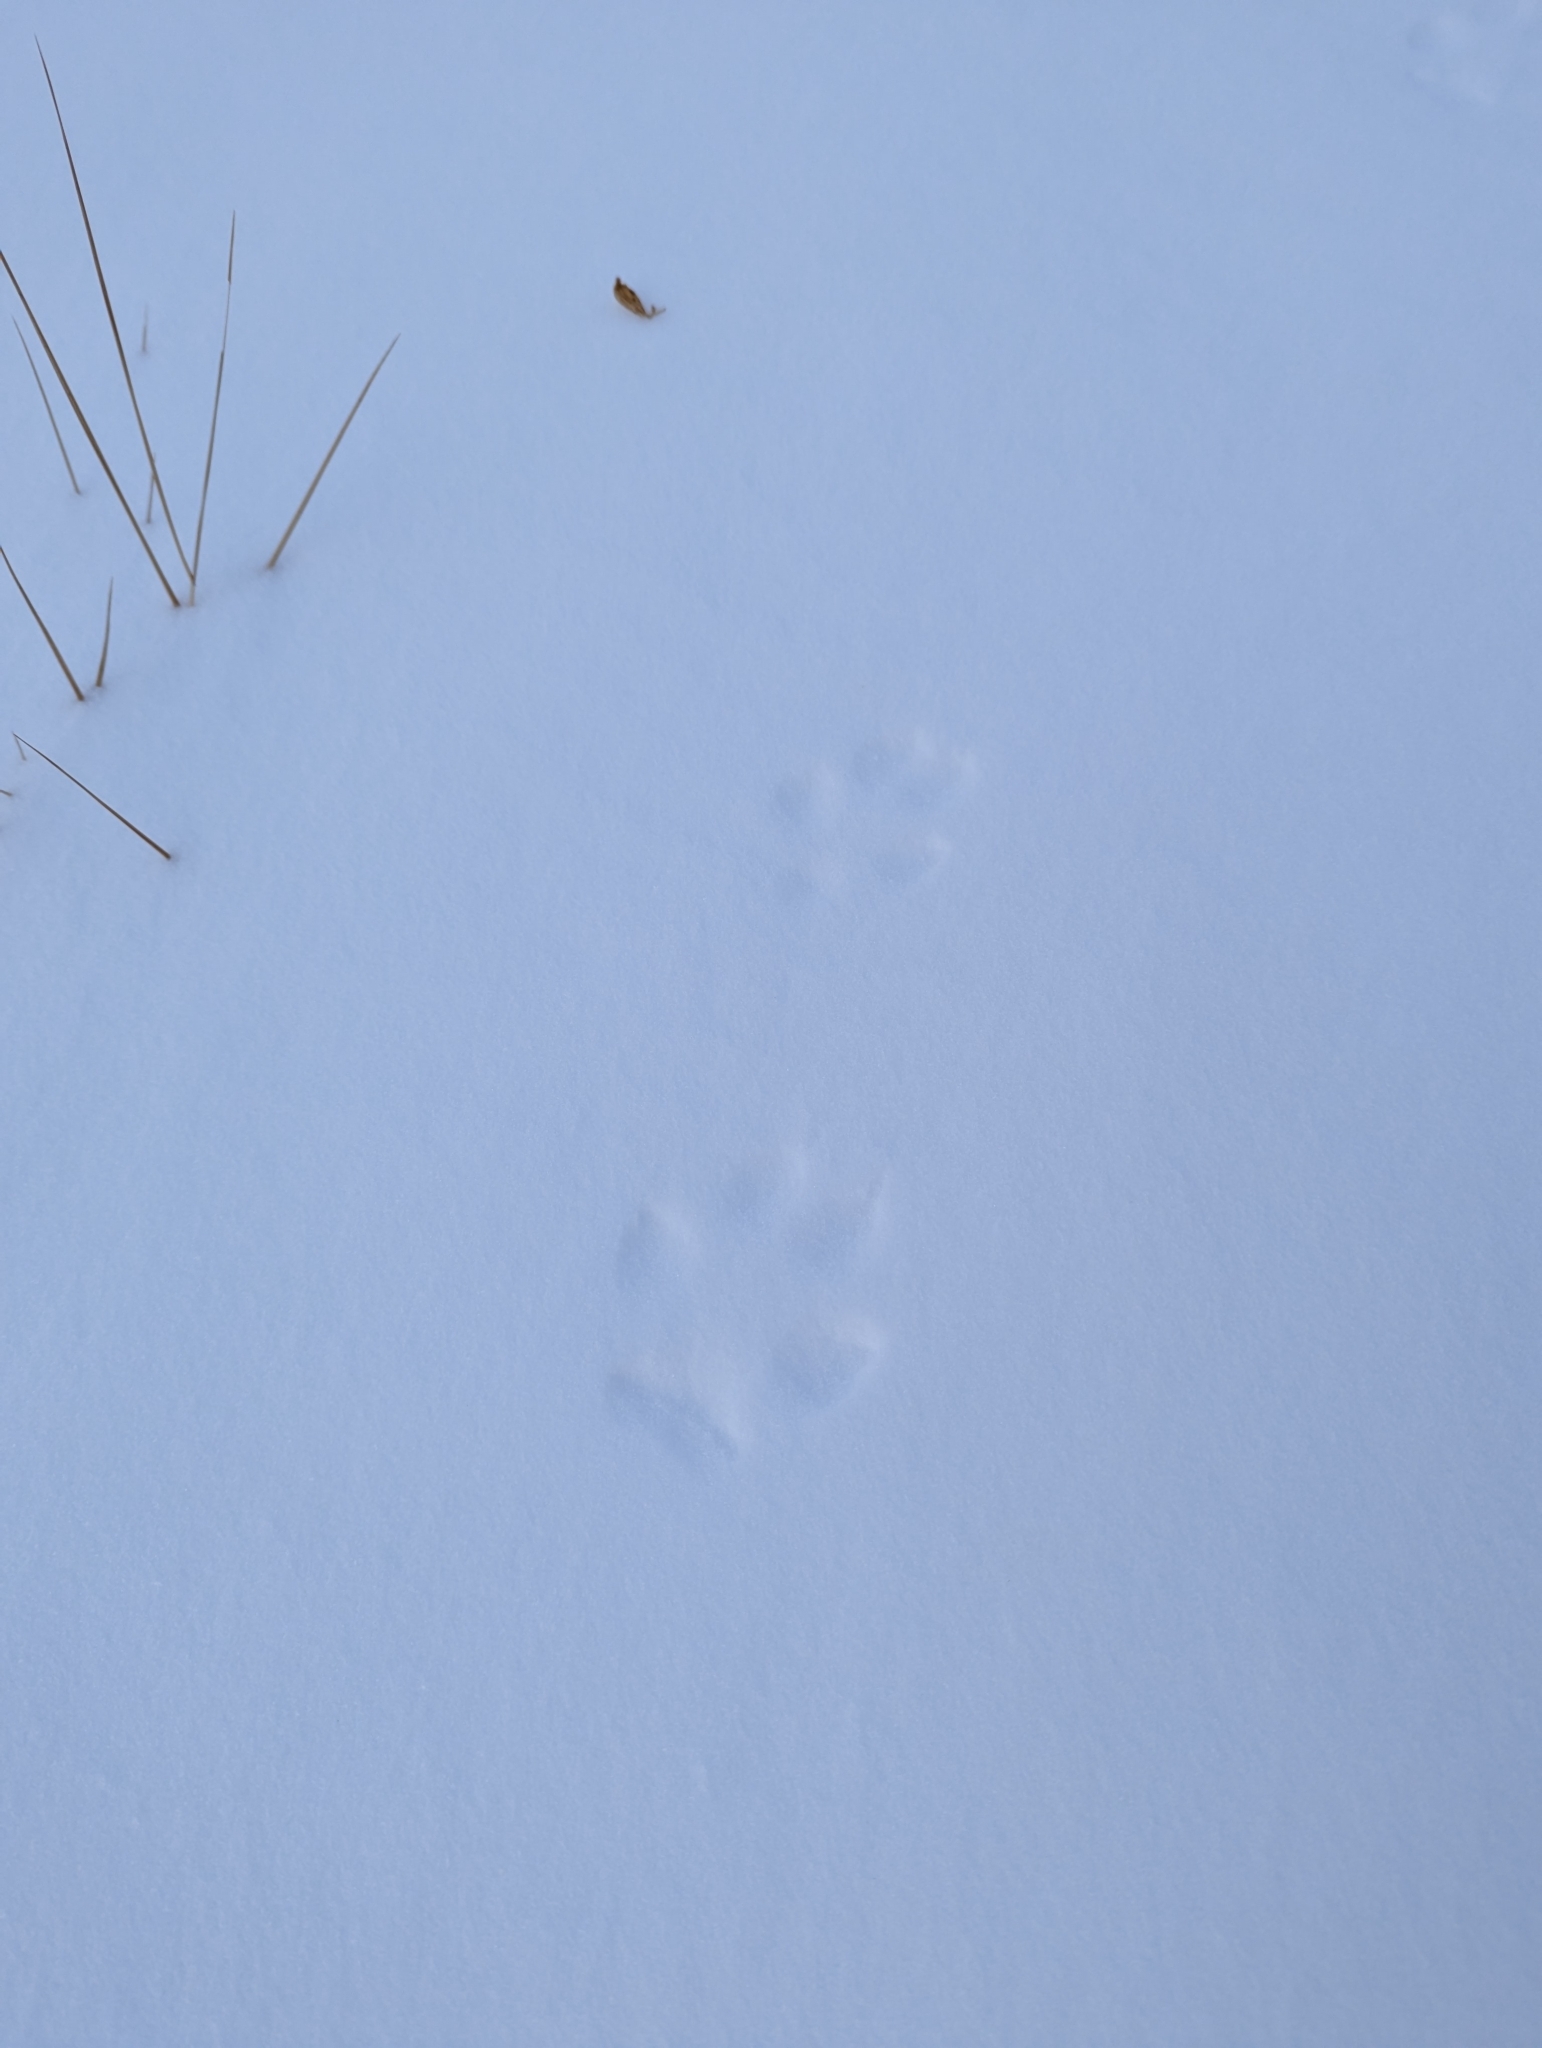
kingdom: Animalia
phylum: Chordata
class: Mammalia
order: Carnivora
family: Canidae
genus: Canis
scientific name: Canis latrans
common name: Coyote
